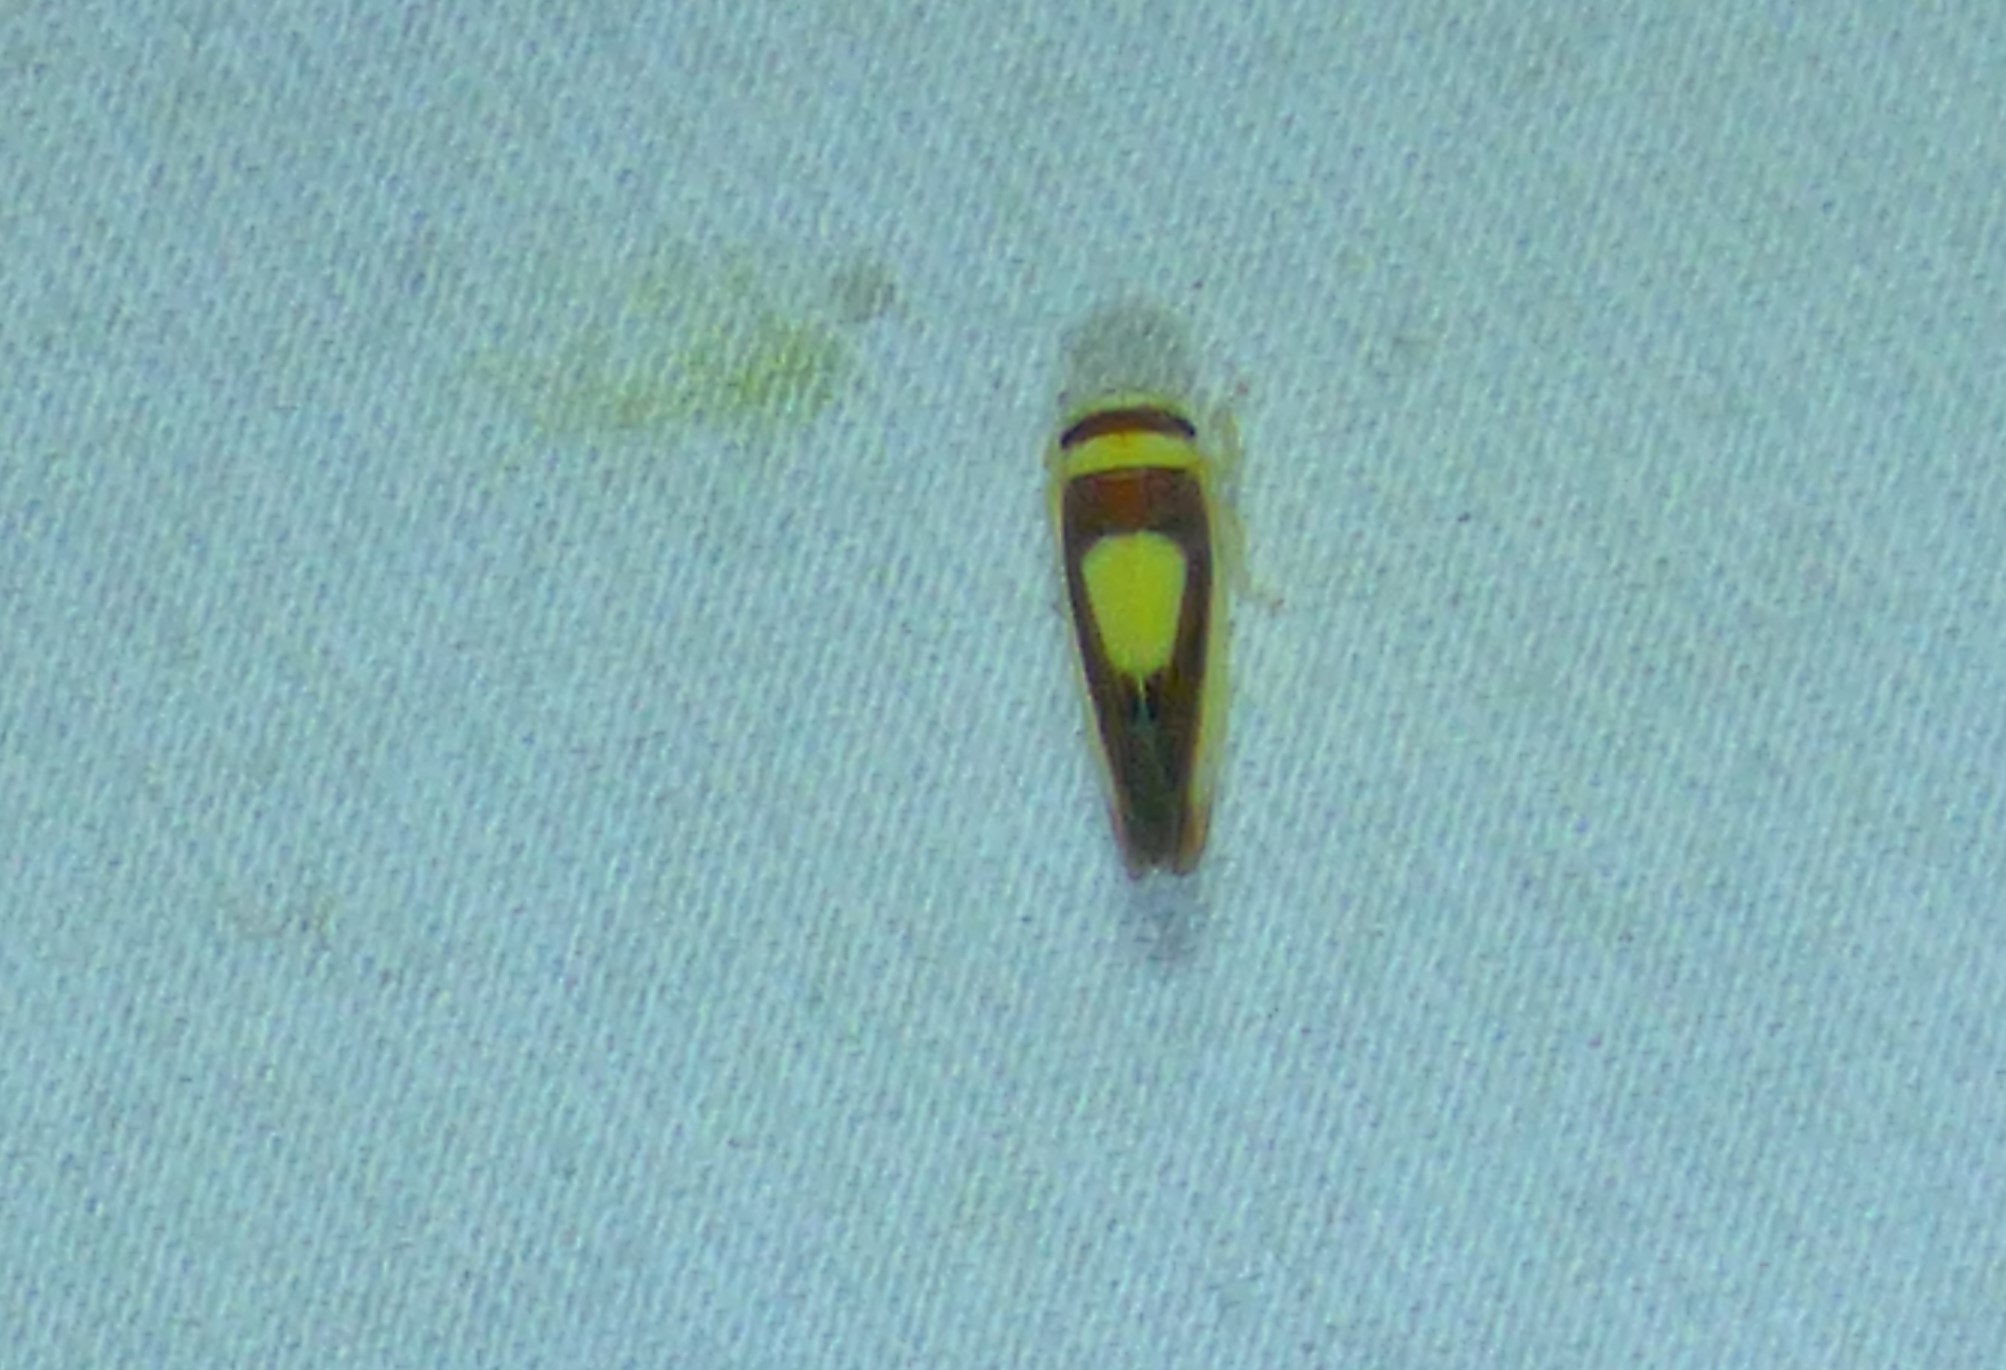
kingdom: Animalia
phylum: Arthropoda
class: Insecta
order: Hemiptera
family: Cicadellidae
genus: Colladonus
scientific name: Colladonus clitellarius
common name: The saddleback leafhopper
